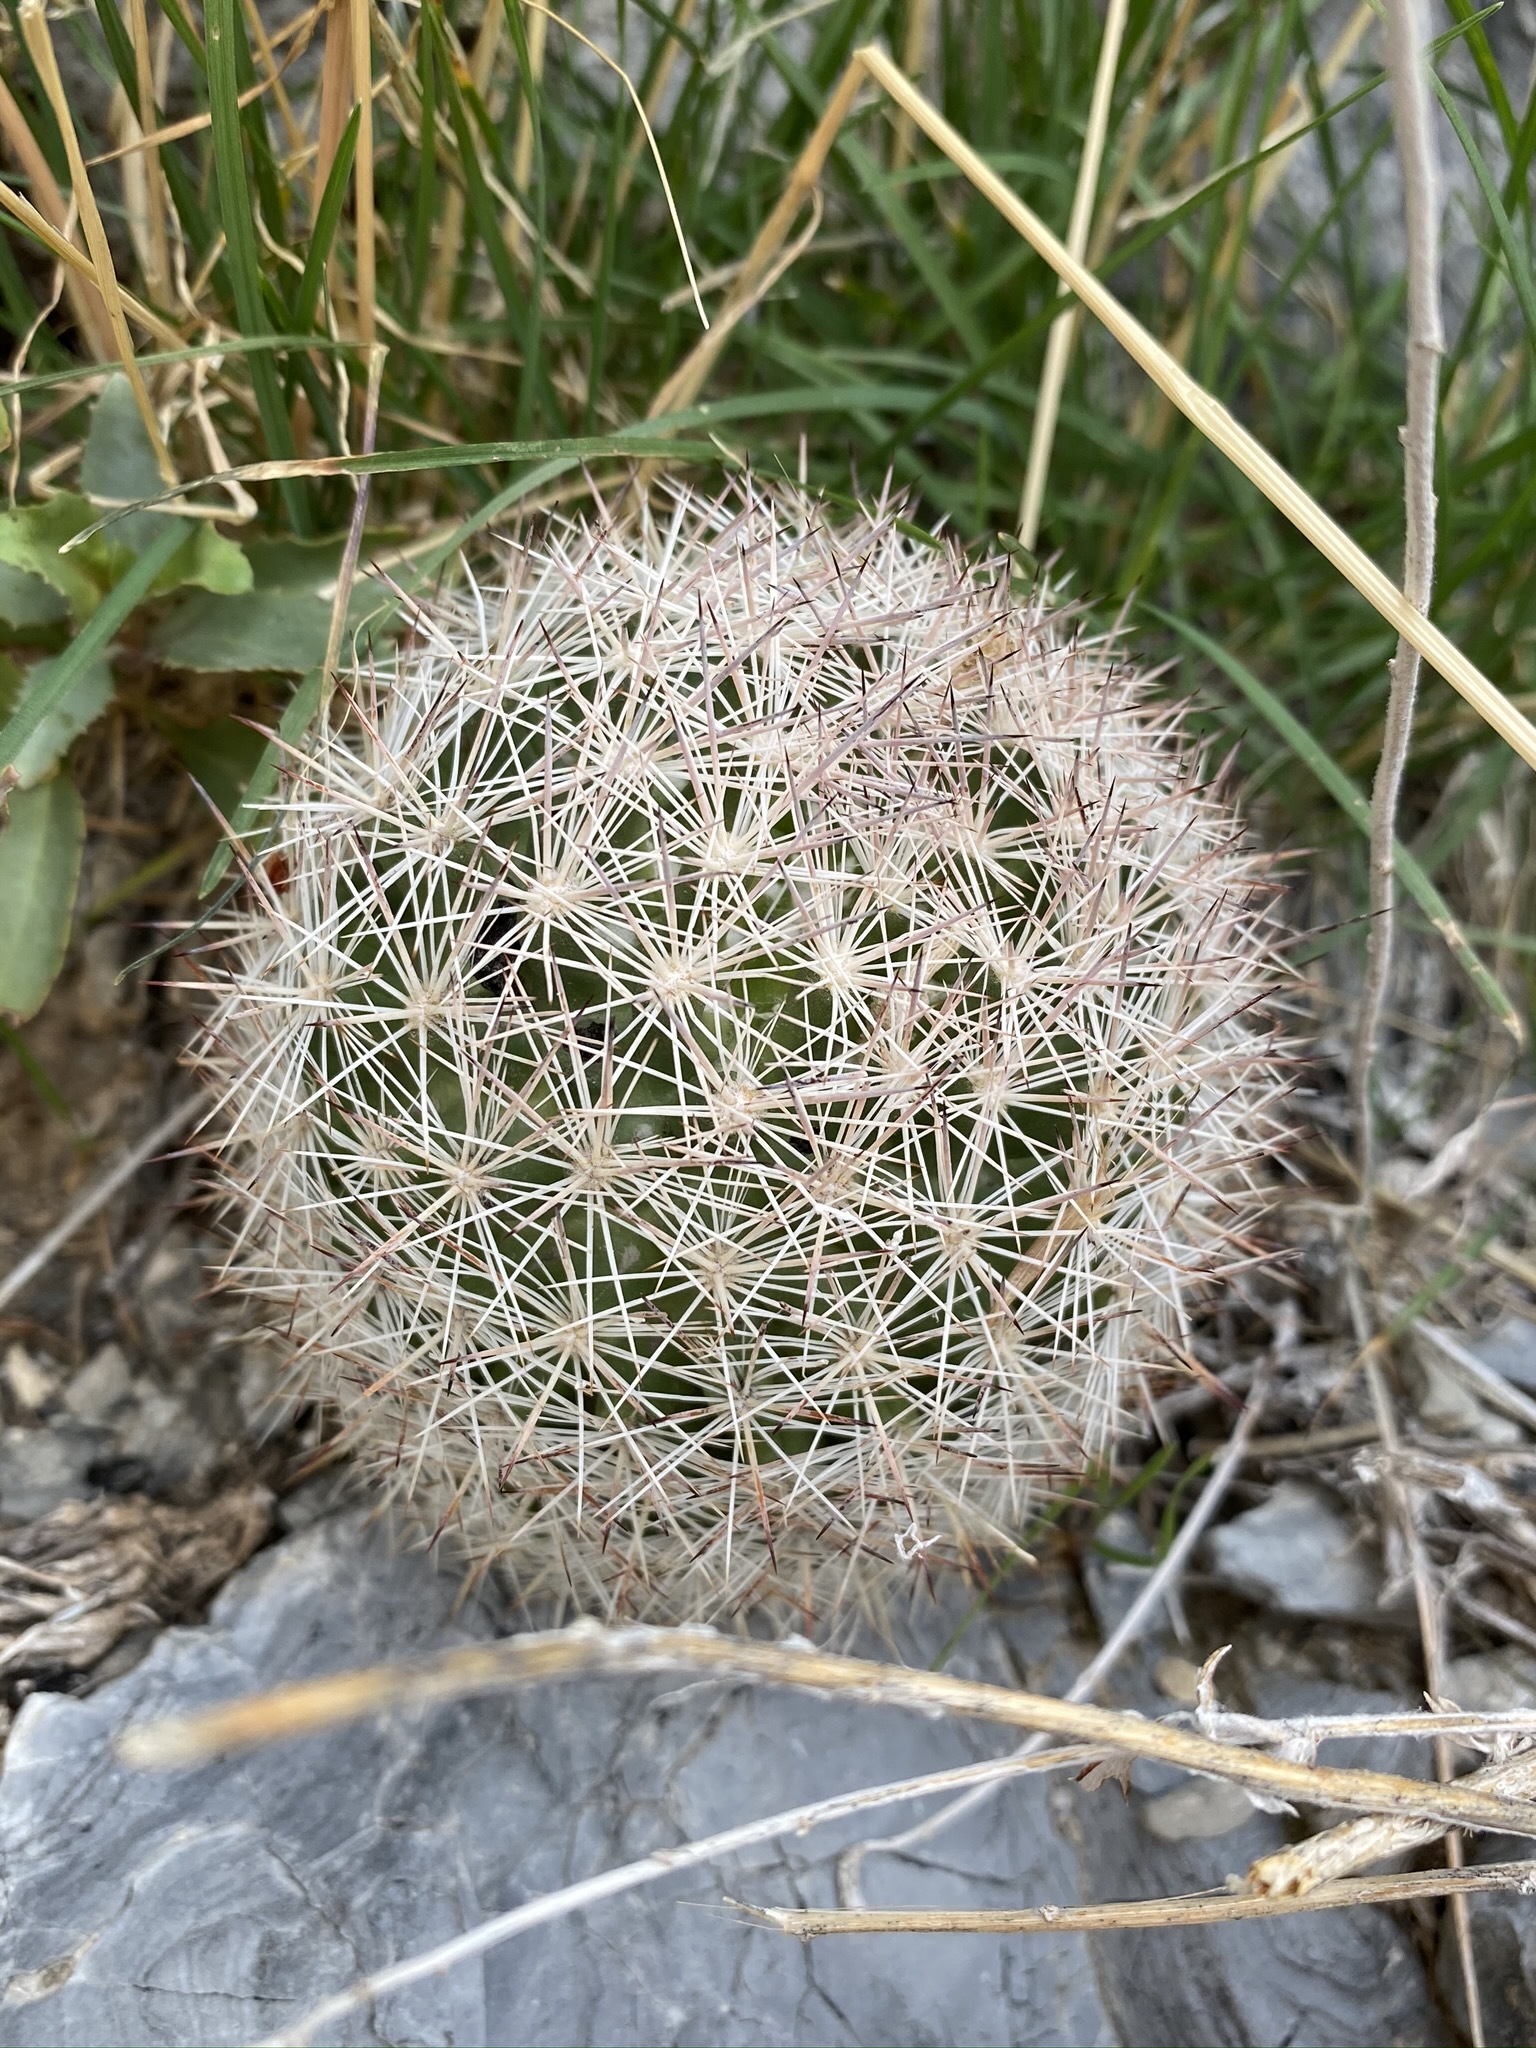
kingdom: Plantae
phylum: Tracheophyta
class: Magnoliopsida
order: Caryophyllales
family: Cactaceae
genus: Pelecyphora
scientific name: Pelecyphora dasyacantha
